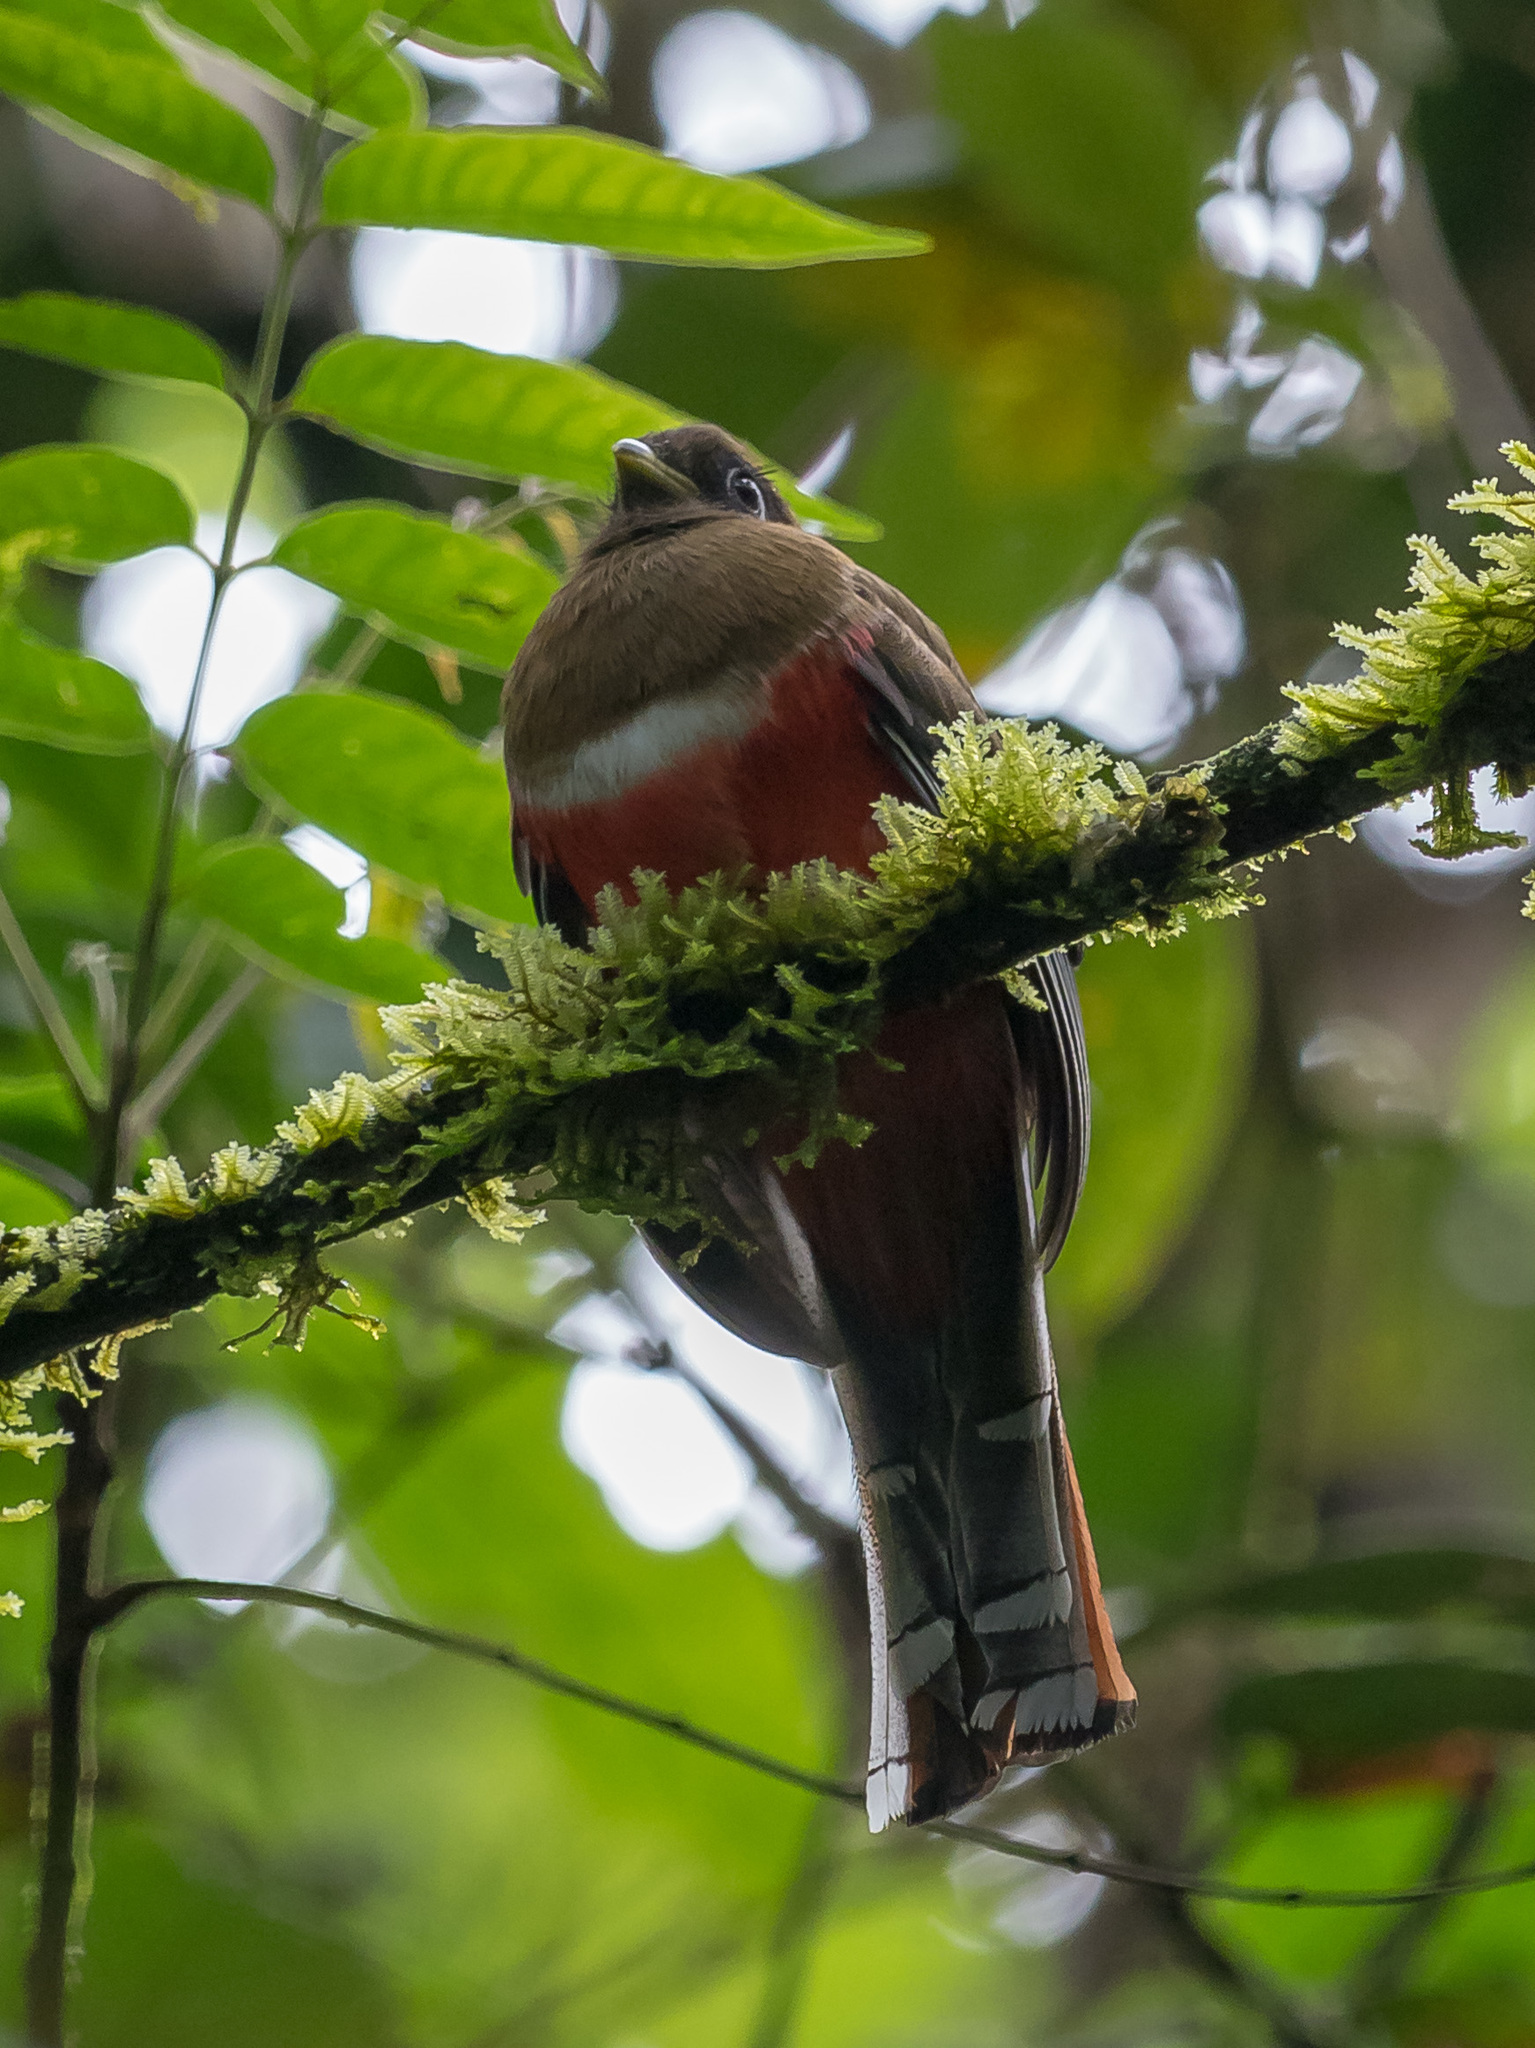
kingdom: Animalia
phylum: Chordata
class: Aves
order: Trogoniformes
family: Trogonidae
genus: Trogon
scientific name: Trogon collaris
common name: Collared trogon
